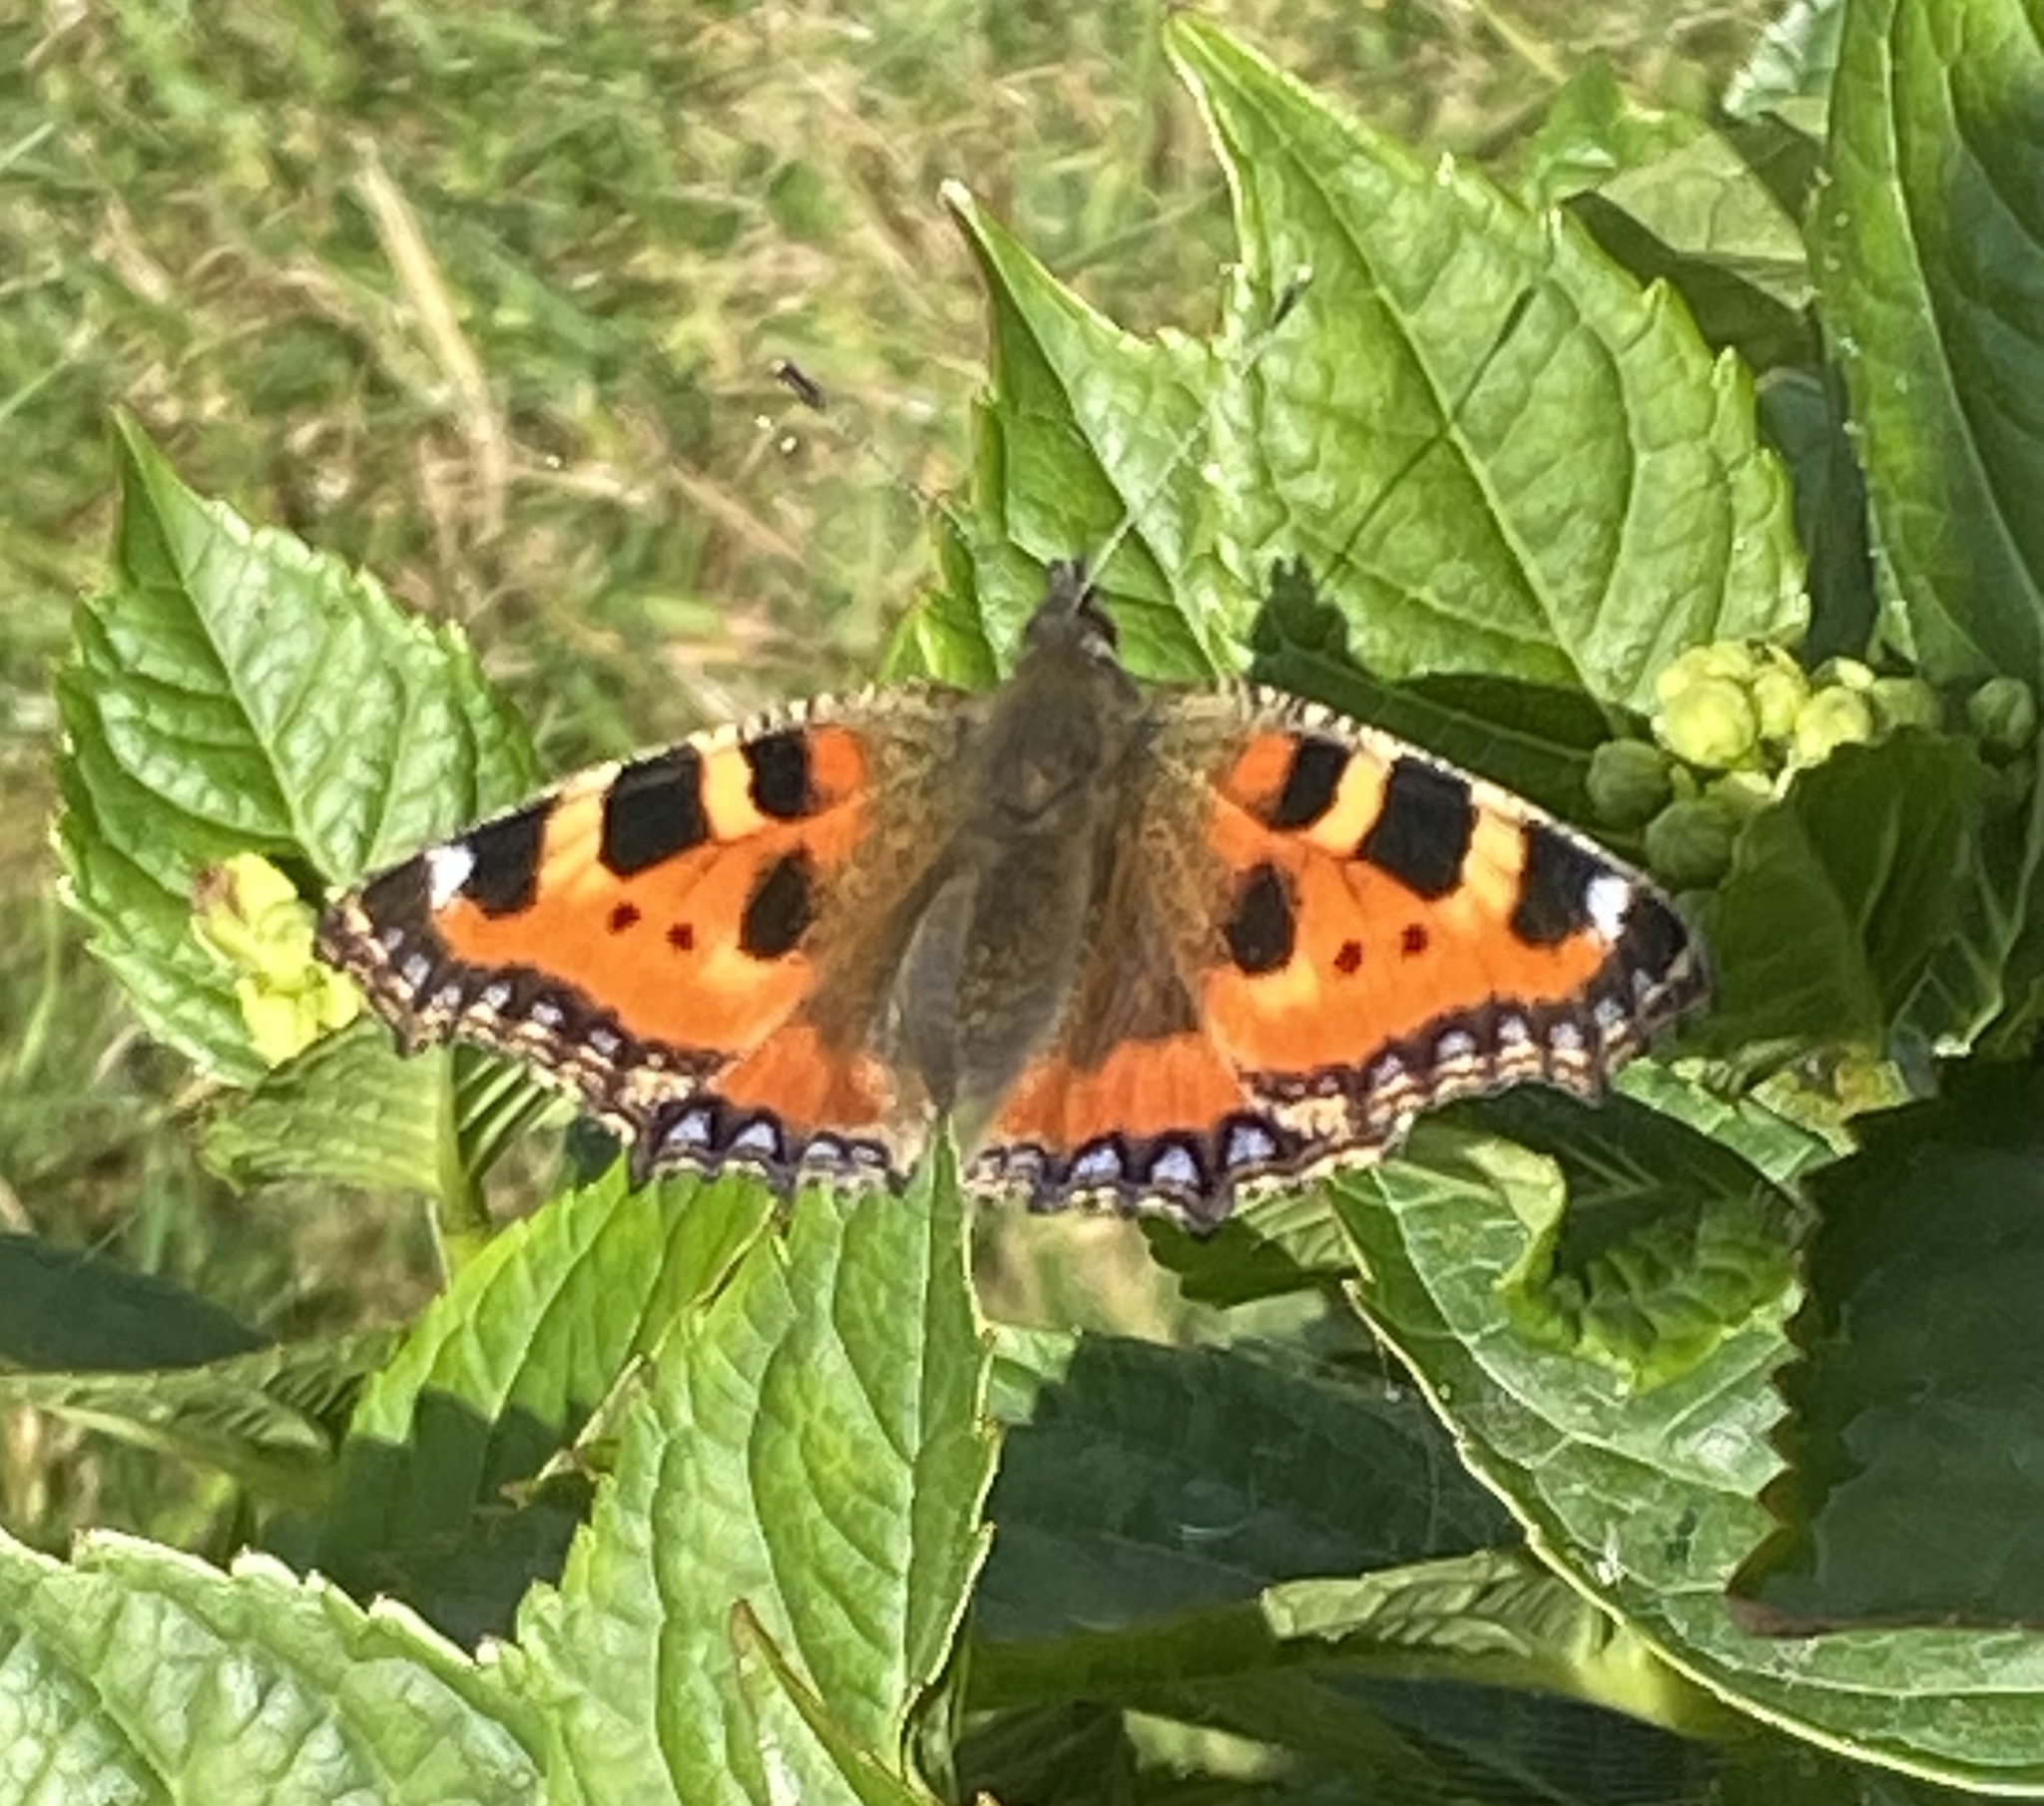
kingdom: Animalia
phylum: Arthropoda
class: Insecta
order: Lepidoptera
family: Nymphalidae
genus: Aglais
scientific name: Aglais urticae
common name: Small tortoiseshell
